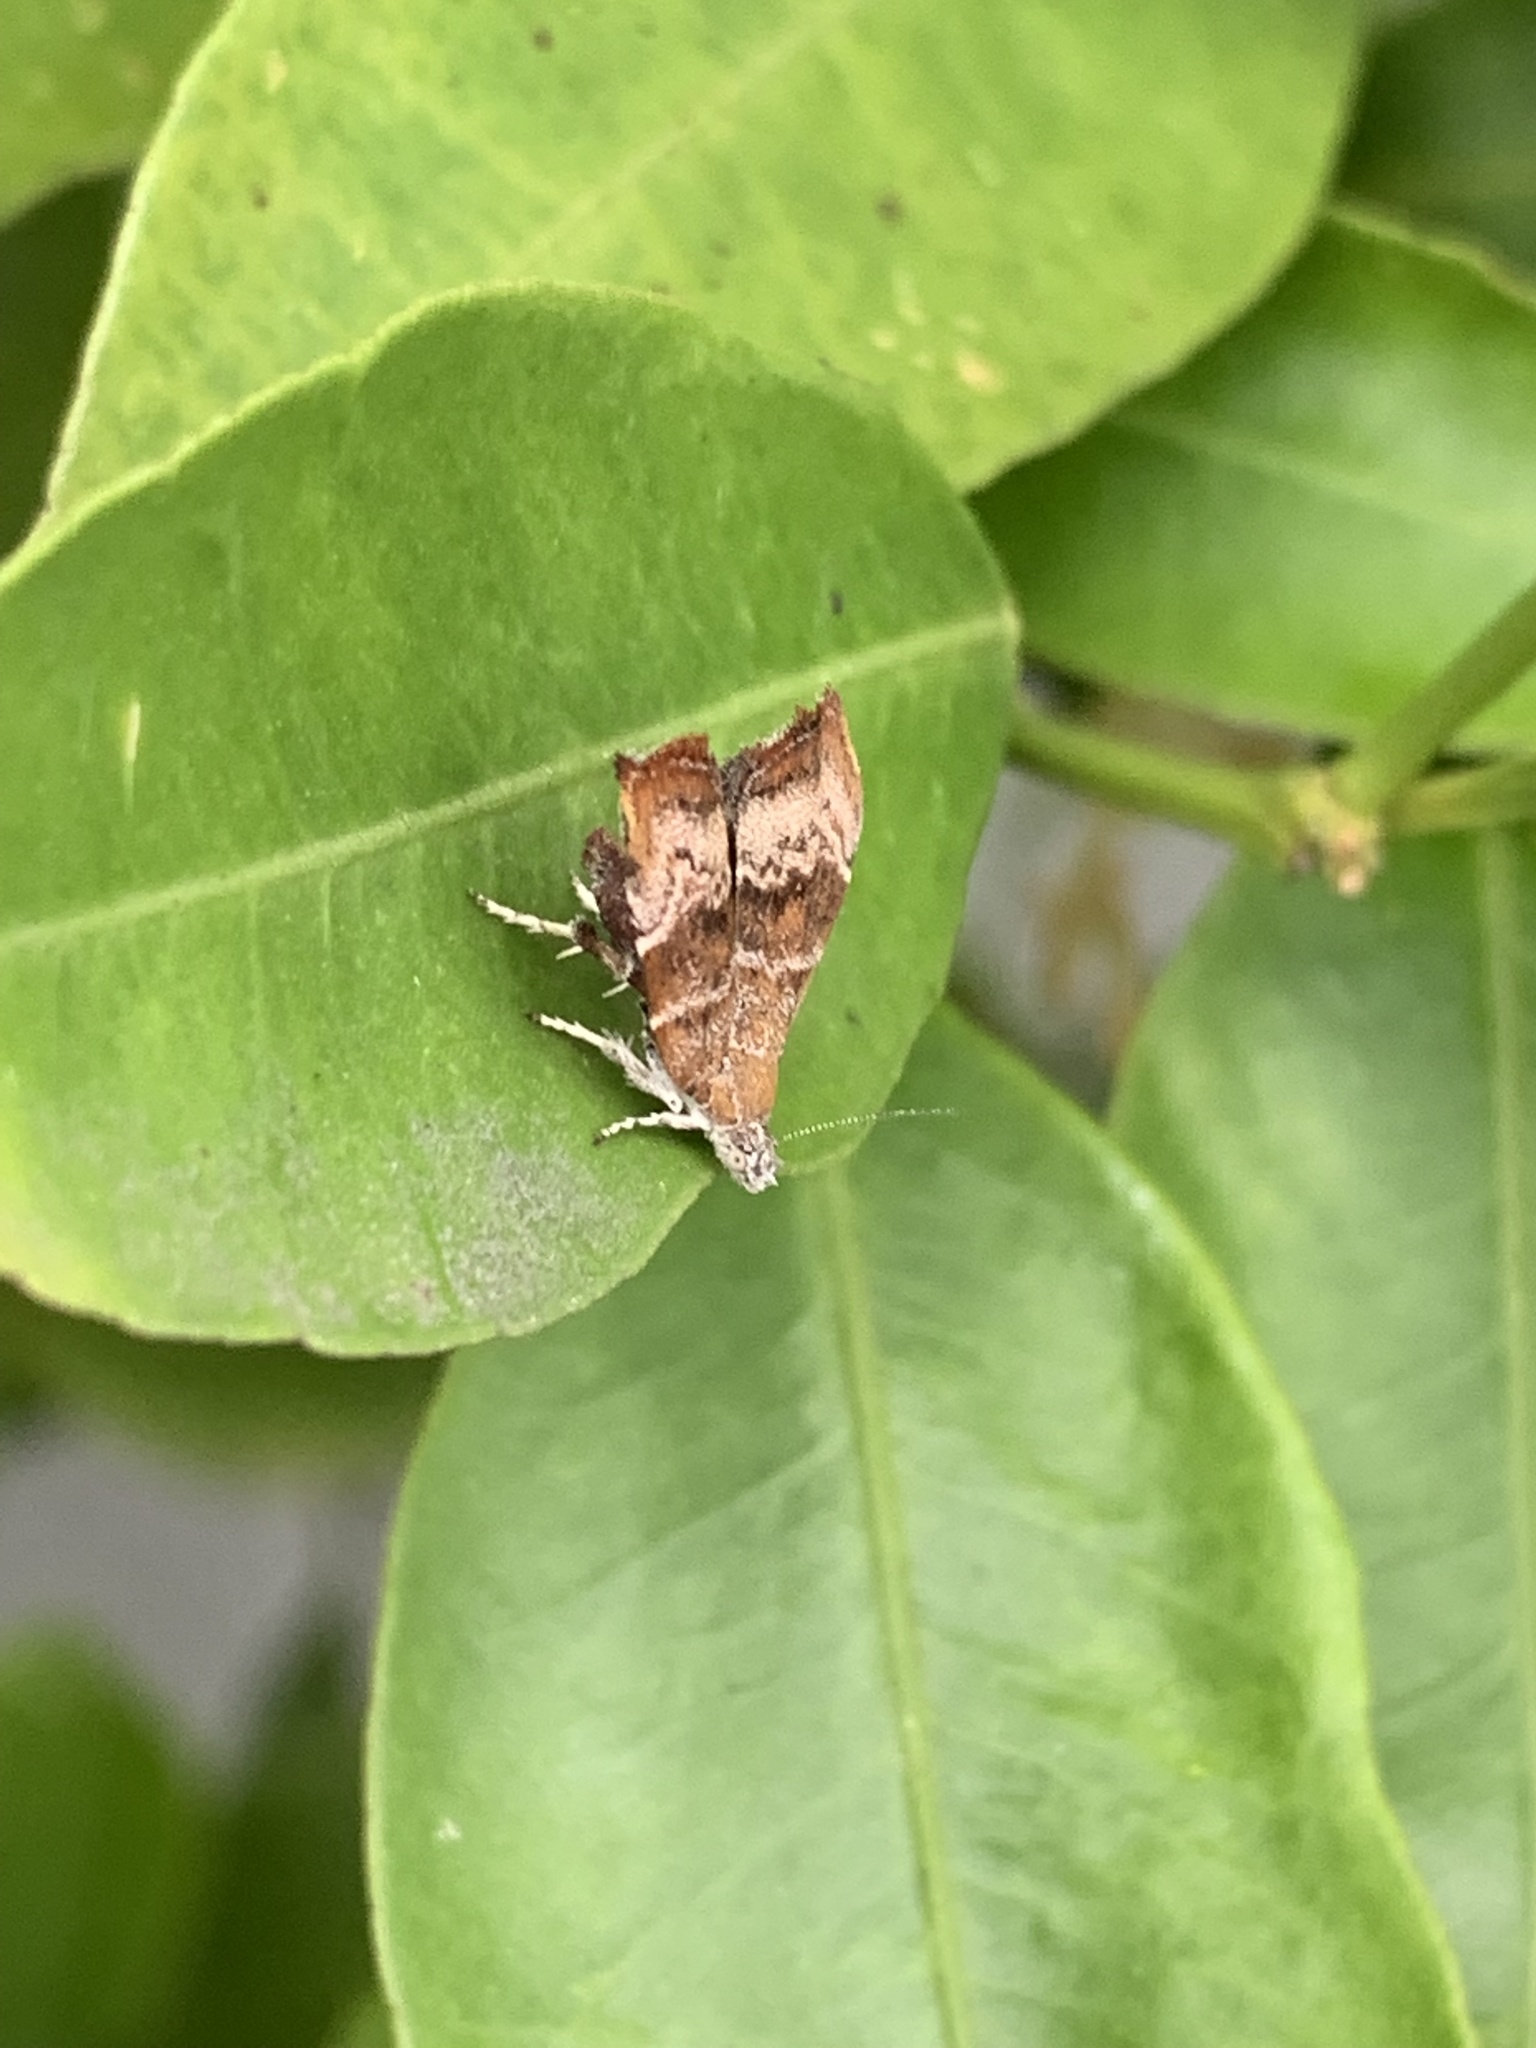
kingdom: Animalia
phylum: Arthropoda
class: Insecta
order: Lepidoptera
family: Choreutidae
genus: Choreutis
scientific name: Choreutis pariana
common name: Apple leaf skeletoniser
